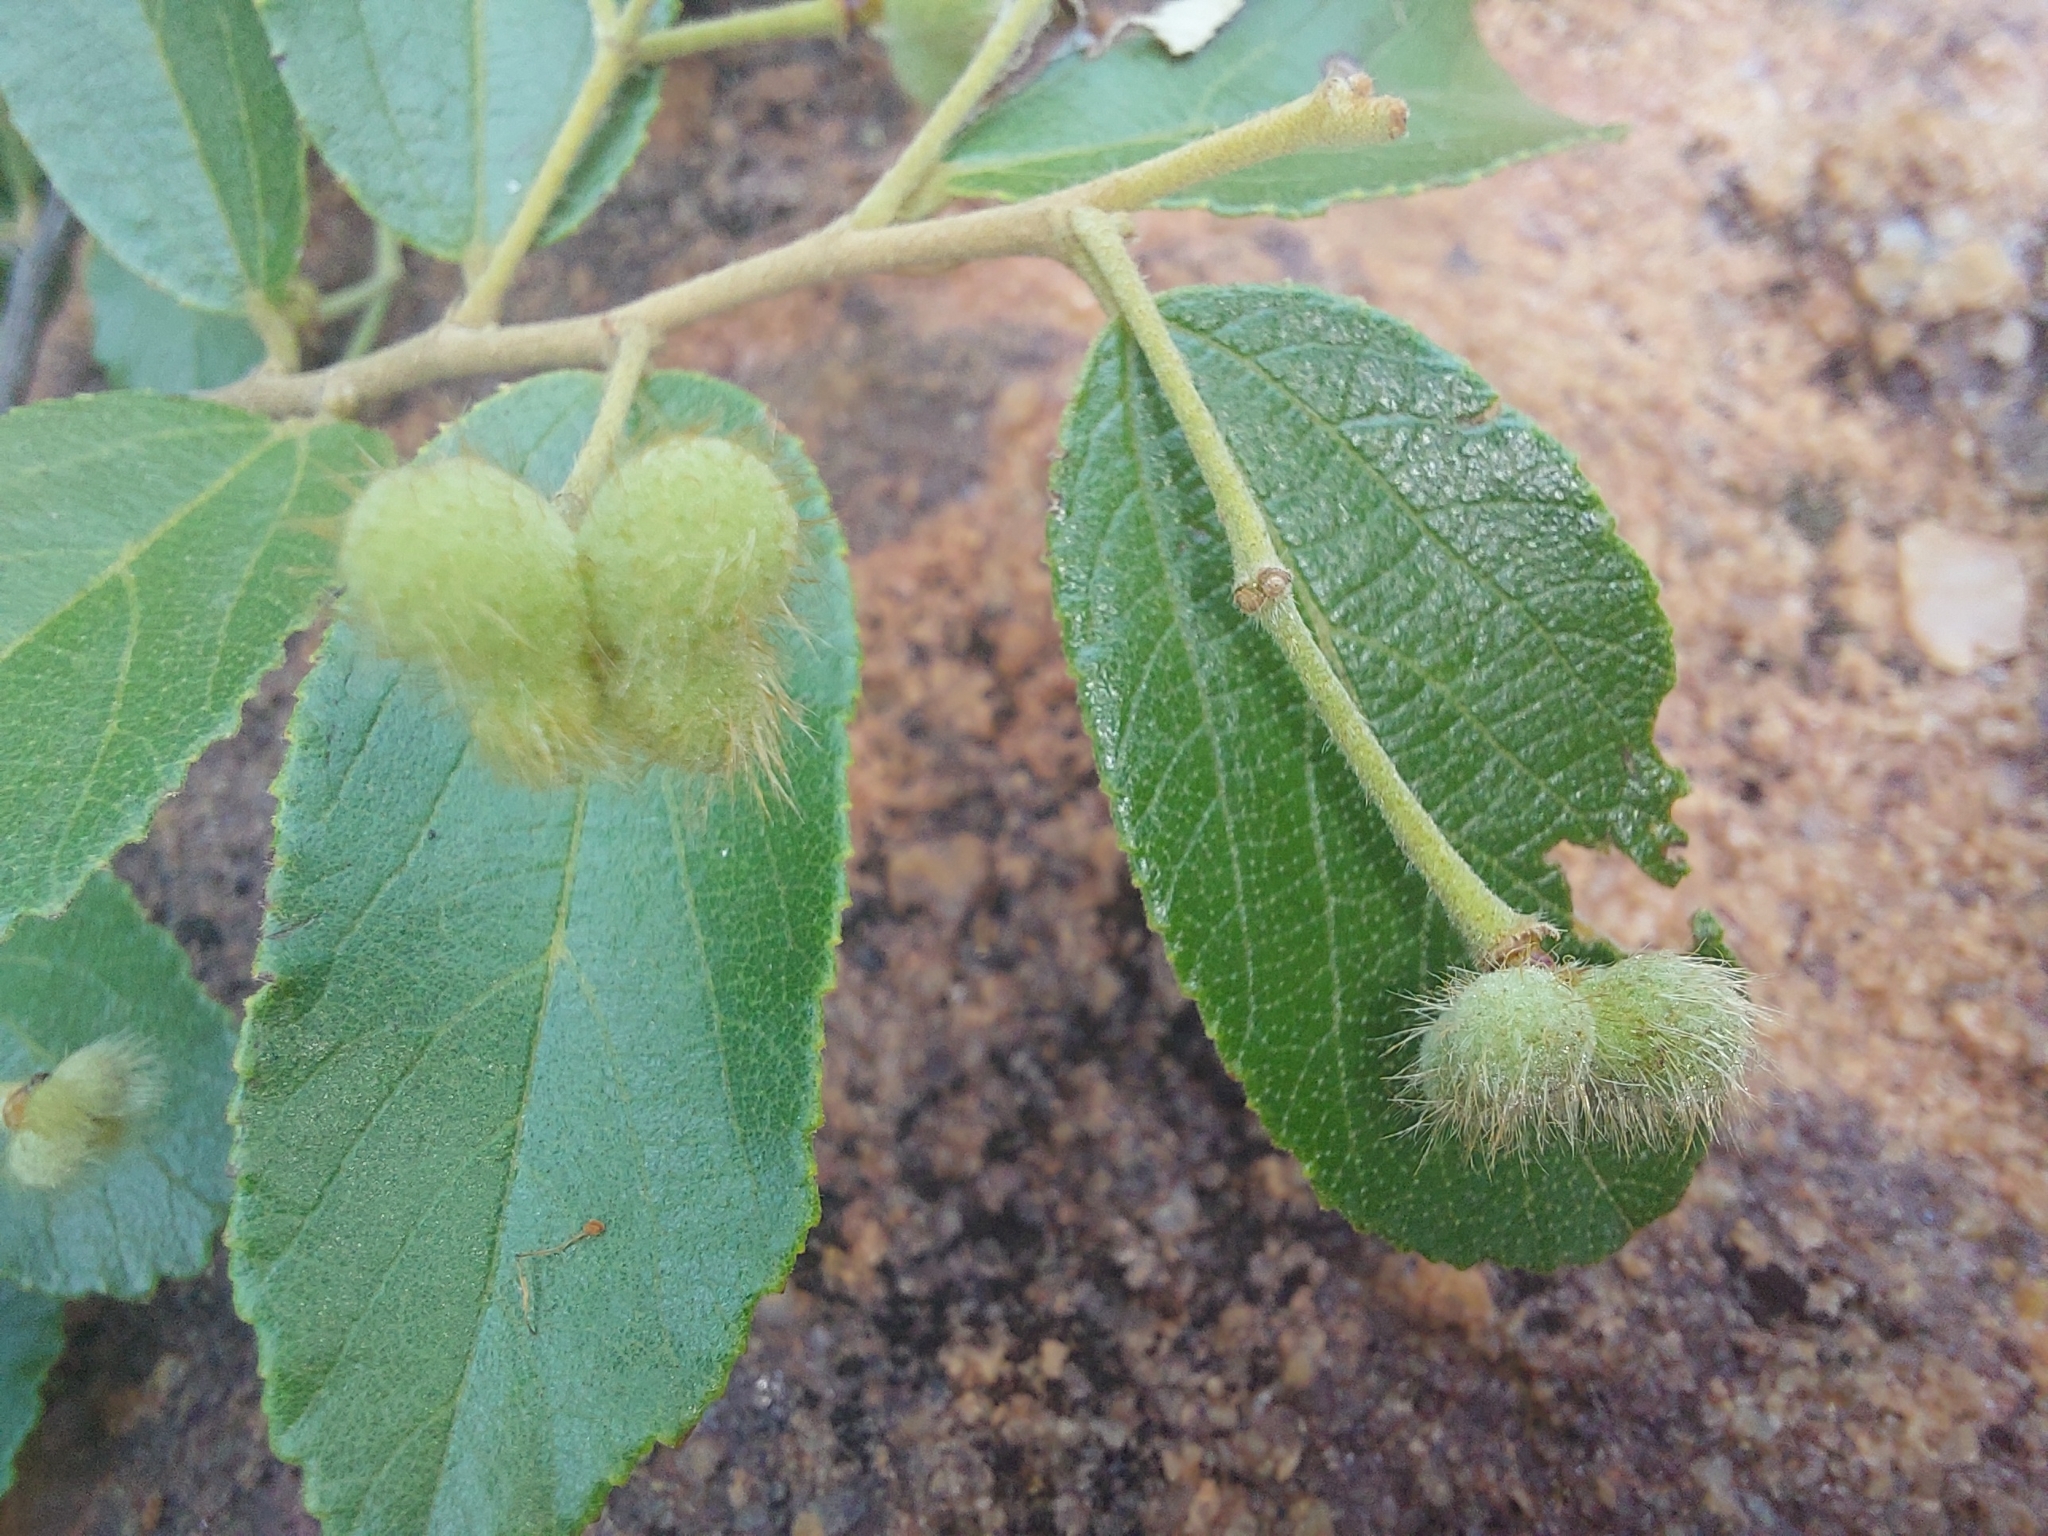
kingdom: Plantae
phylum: Tracheophyta
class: Magnoliopsida
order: Malvales
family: Malvaceae
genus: Grewia
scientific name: Grewia rogersii
